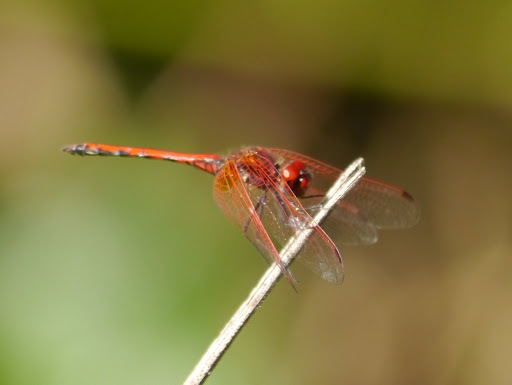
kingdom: Animalia
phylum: Arthropoda
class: Insecta
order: Odonata
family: Libellulidae
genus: Trithemis
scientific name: Trithemis arteriosa
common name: Red-veined dropwing
